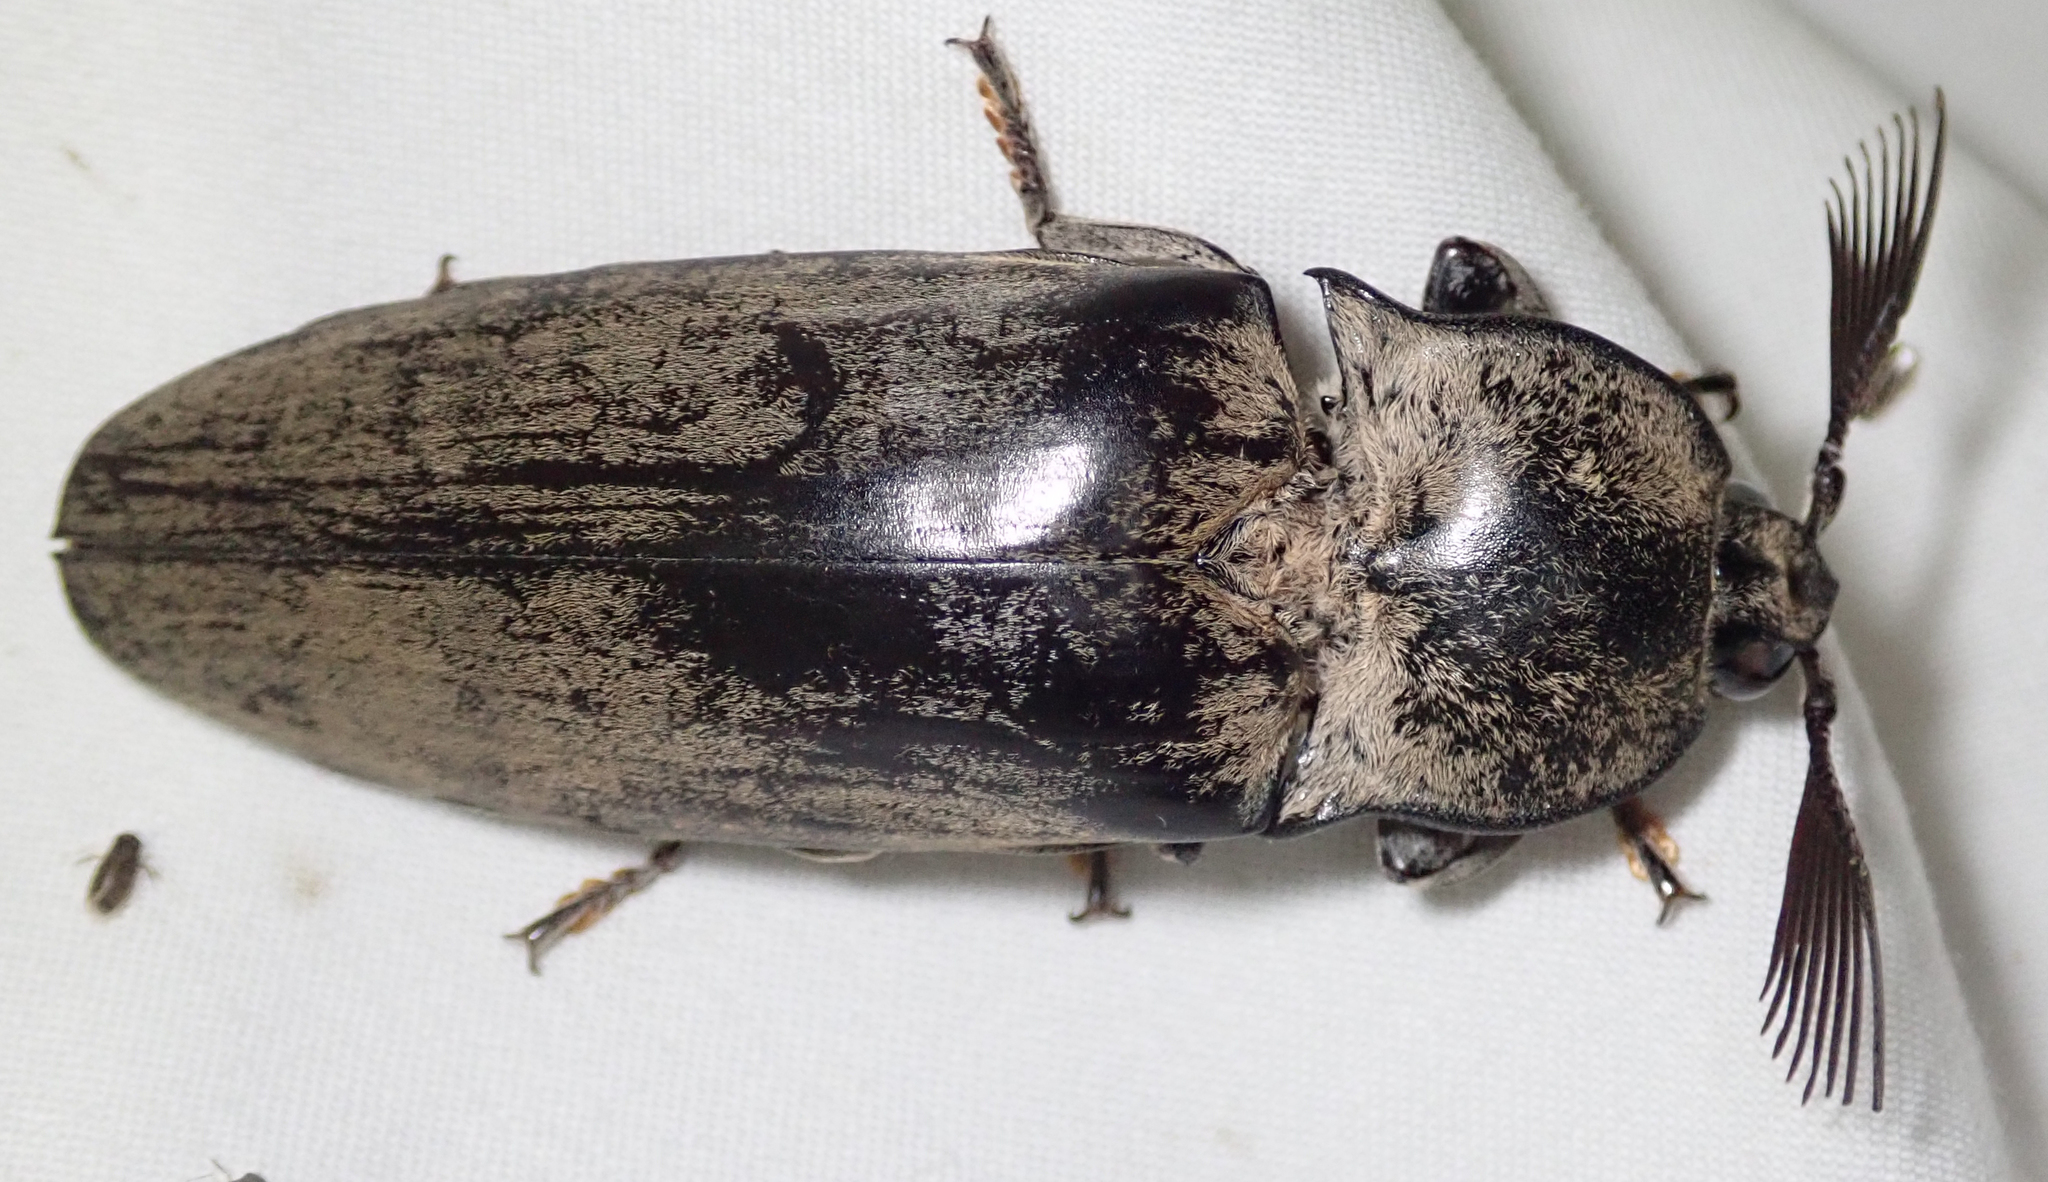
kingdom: Animalia
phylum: Arthropoda
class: Insecta
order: Coleoptera
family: Elateridae
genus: Tetralobus
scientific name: Tetralobus flabellicornis
